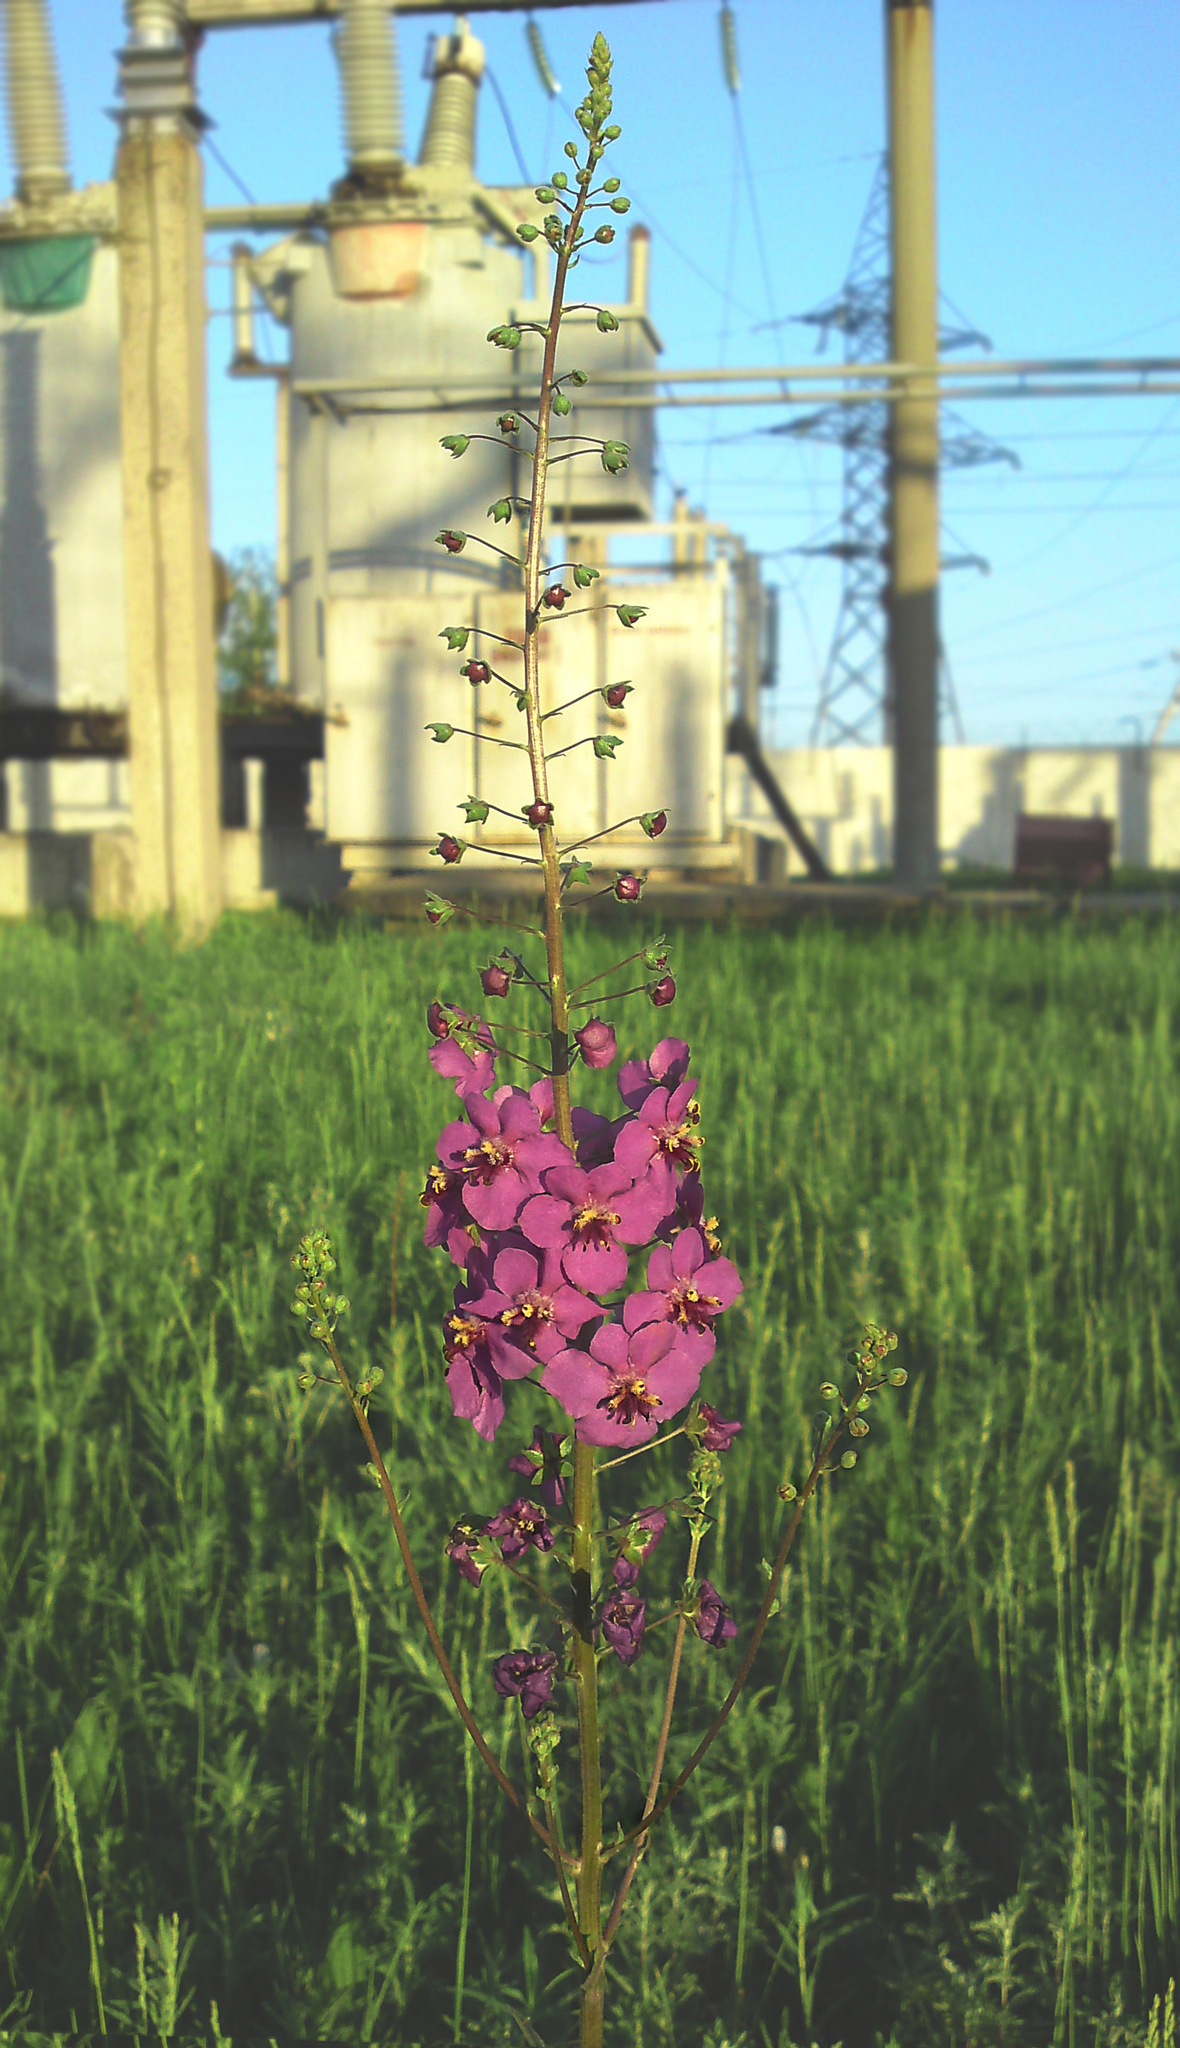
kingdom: Plantae
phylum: Tracheophyta
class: Magnoliopsida
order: Lamiales
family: Scrophulariaceae
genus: Verbascum
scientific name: Verbascum phoeniceum
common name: Purple mullein
